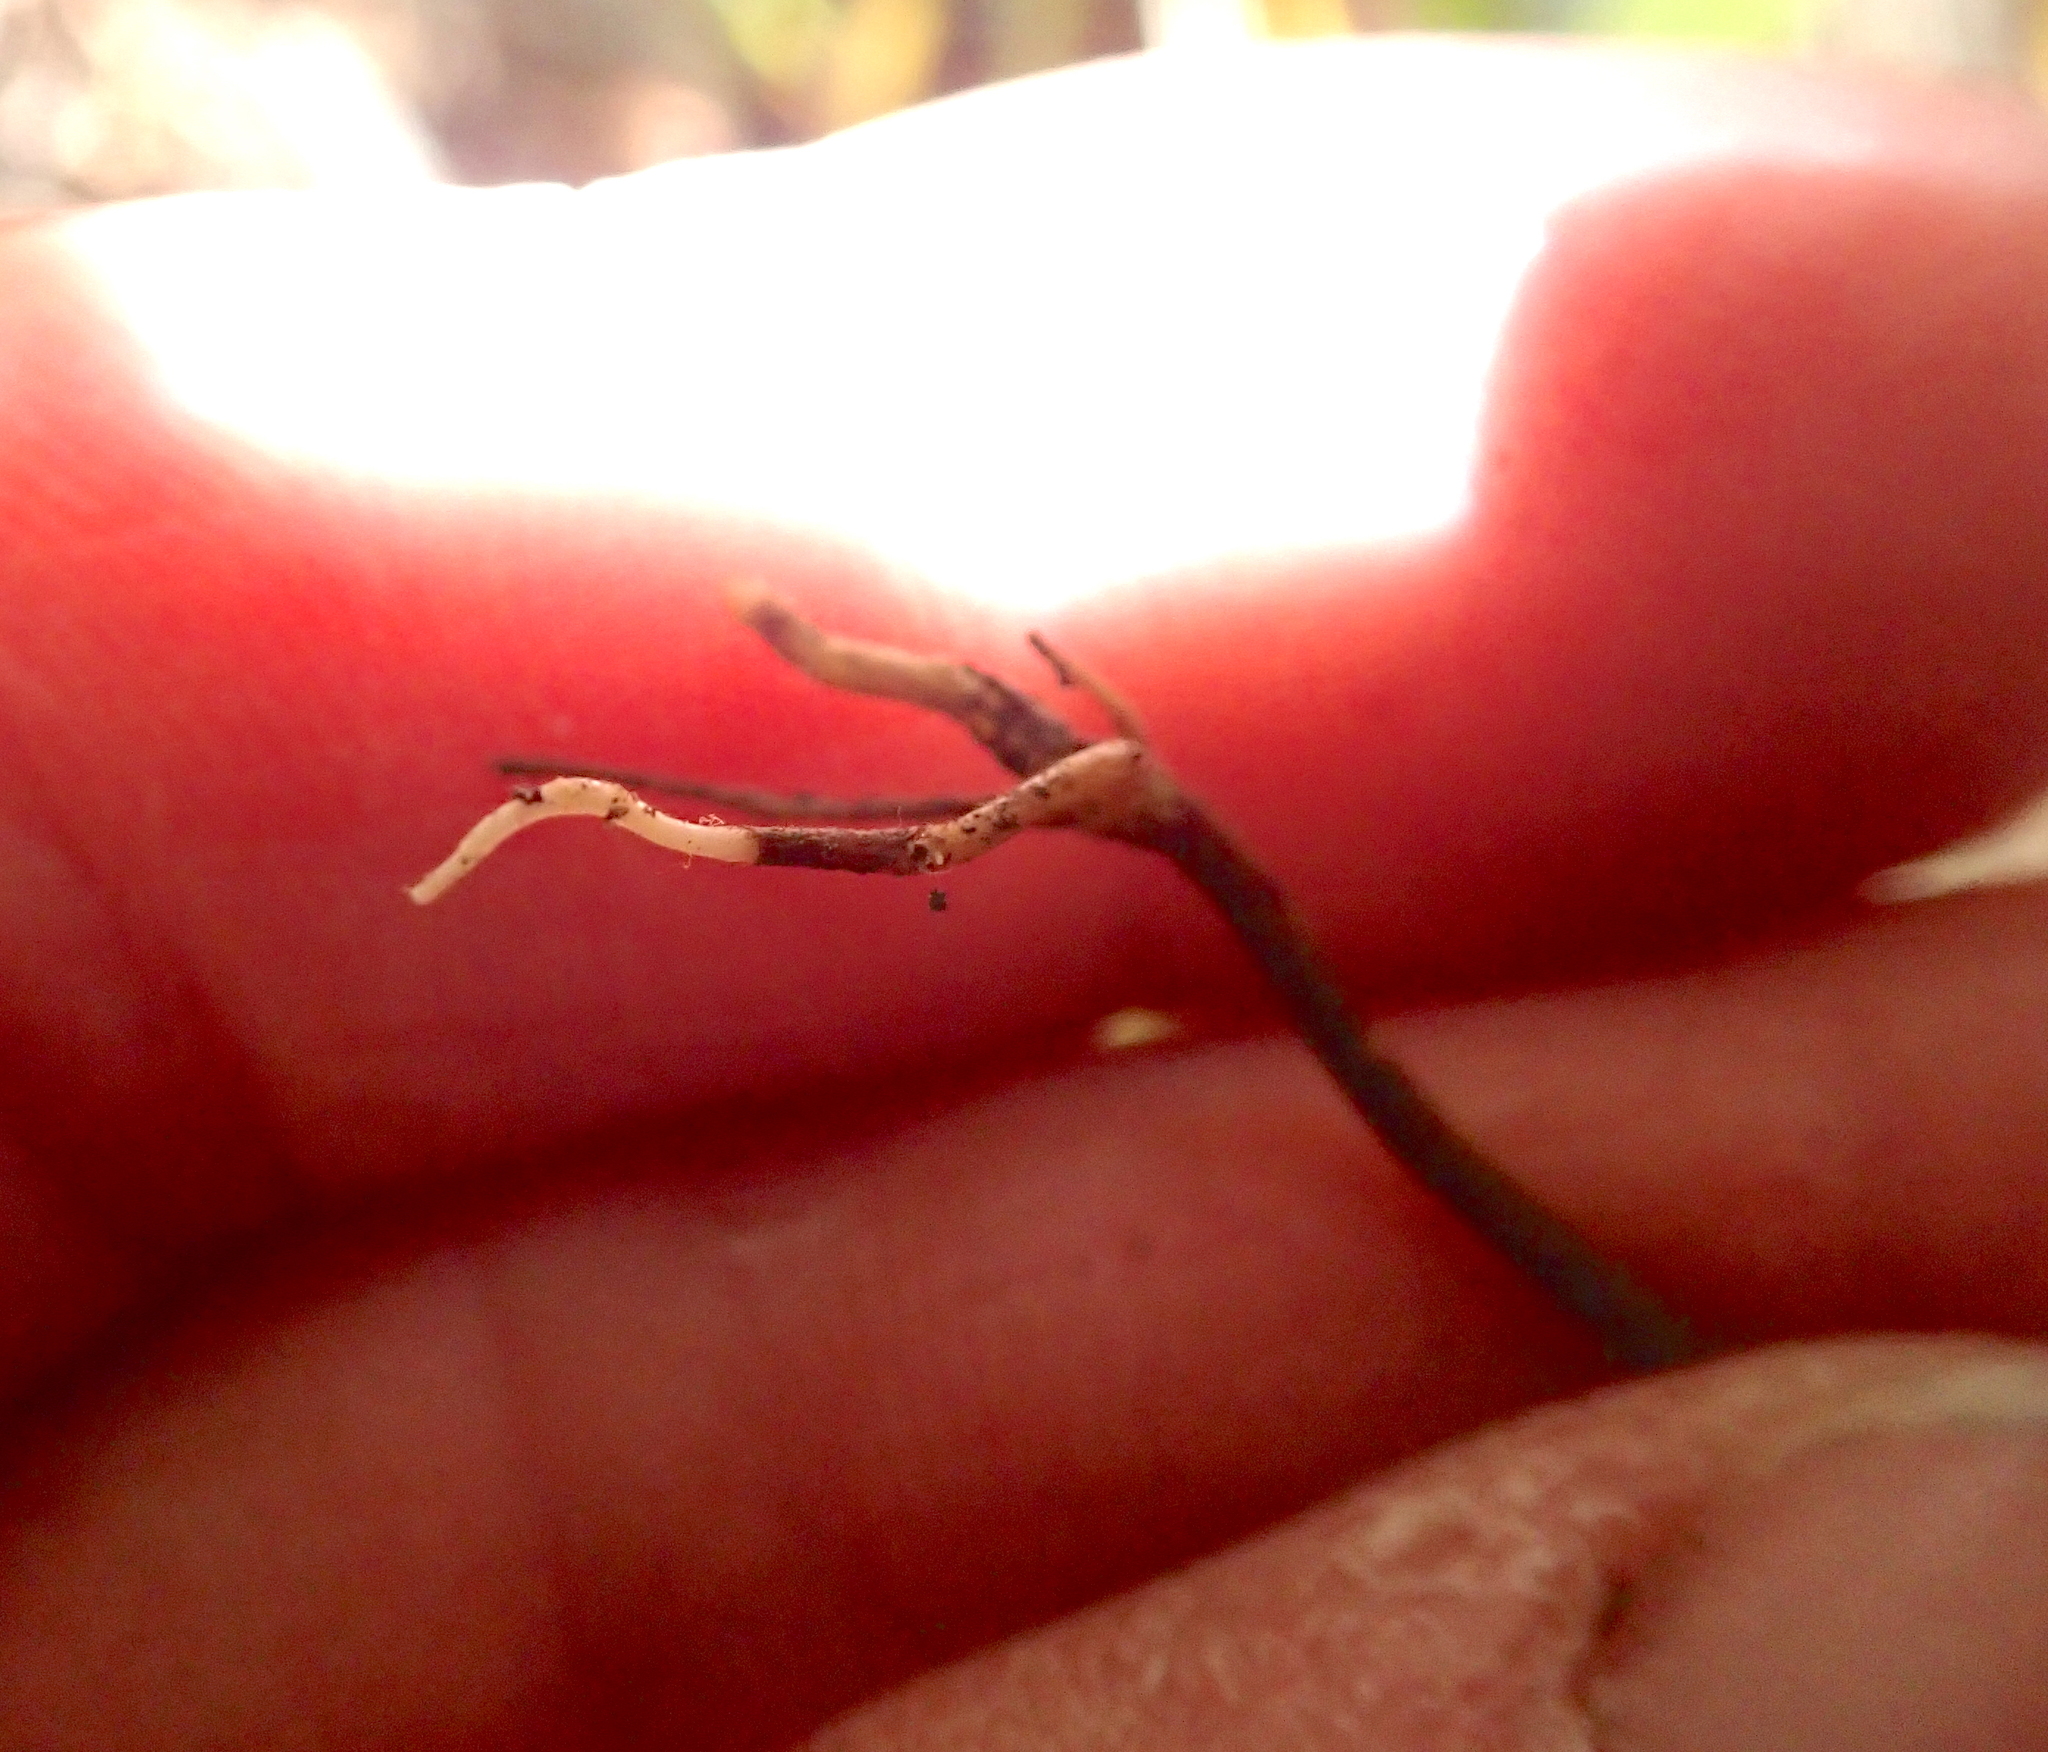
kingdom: Plantae
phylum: Tracheophyta
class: Magnoliopsida
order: Geraniales
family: Melianthaceae
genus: Melianthus
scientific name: Melianthus major
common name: Honey-flower
